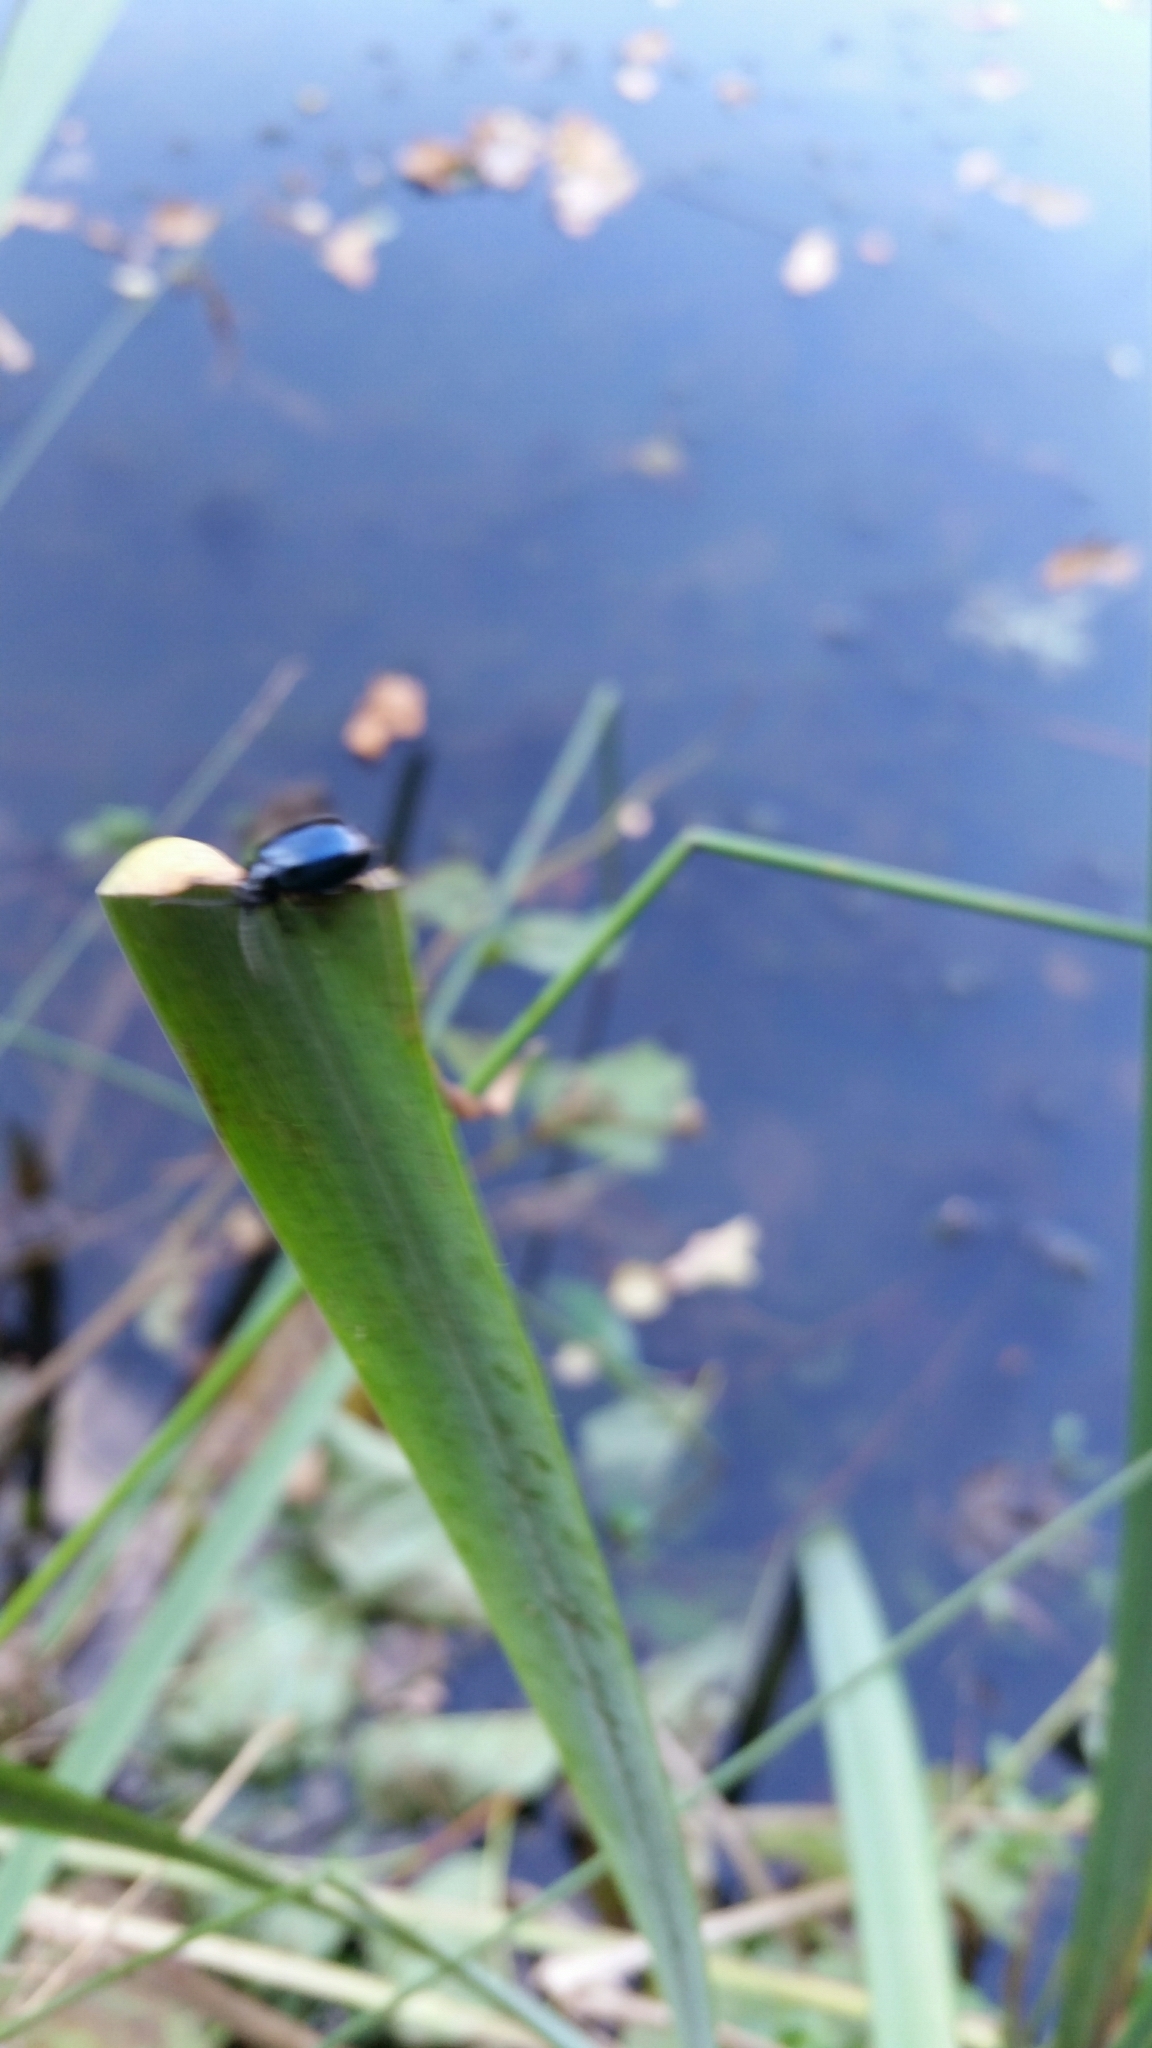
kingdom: Animalia
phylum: Arthropoda
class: Insecta
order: Coleoptera
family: Chrysomelidae
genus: Agelastica
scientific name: Agelastica alni
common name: Alder leaf beetle
